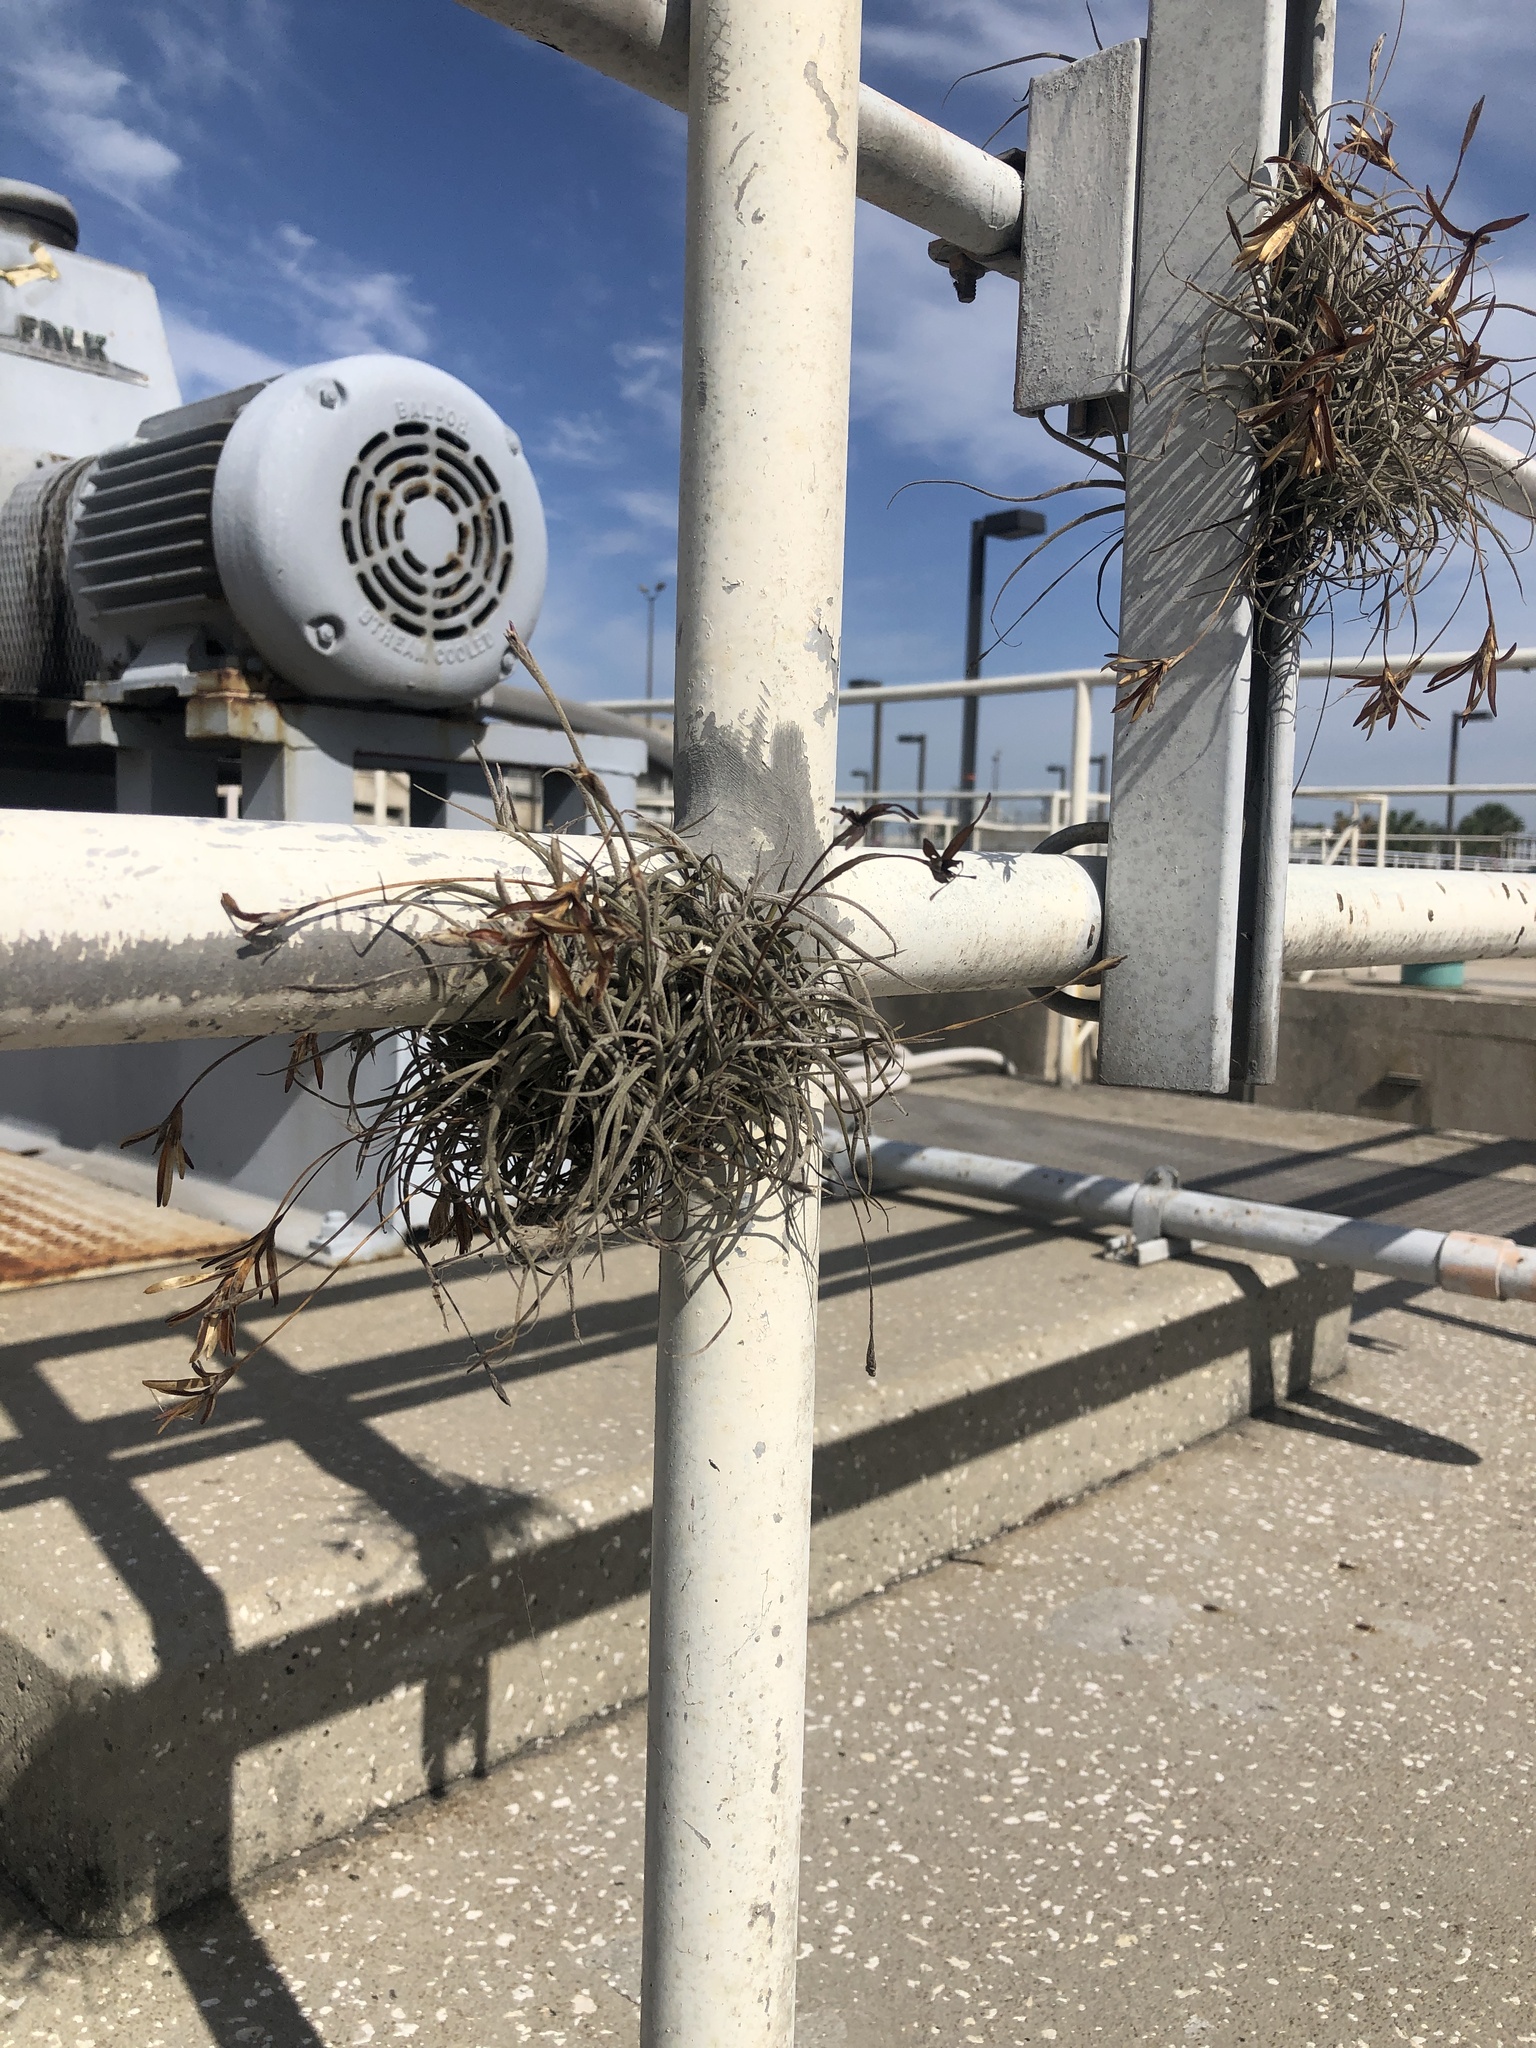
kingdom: Plantae
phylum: Tracheophyta
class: Liliopsida
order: Poales
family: Bromeliaceae
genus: Tillandsia
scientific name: Tillandsia recurvata
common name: Small ballmoss
